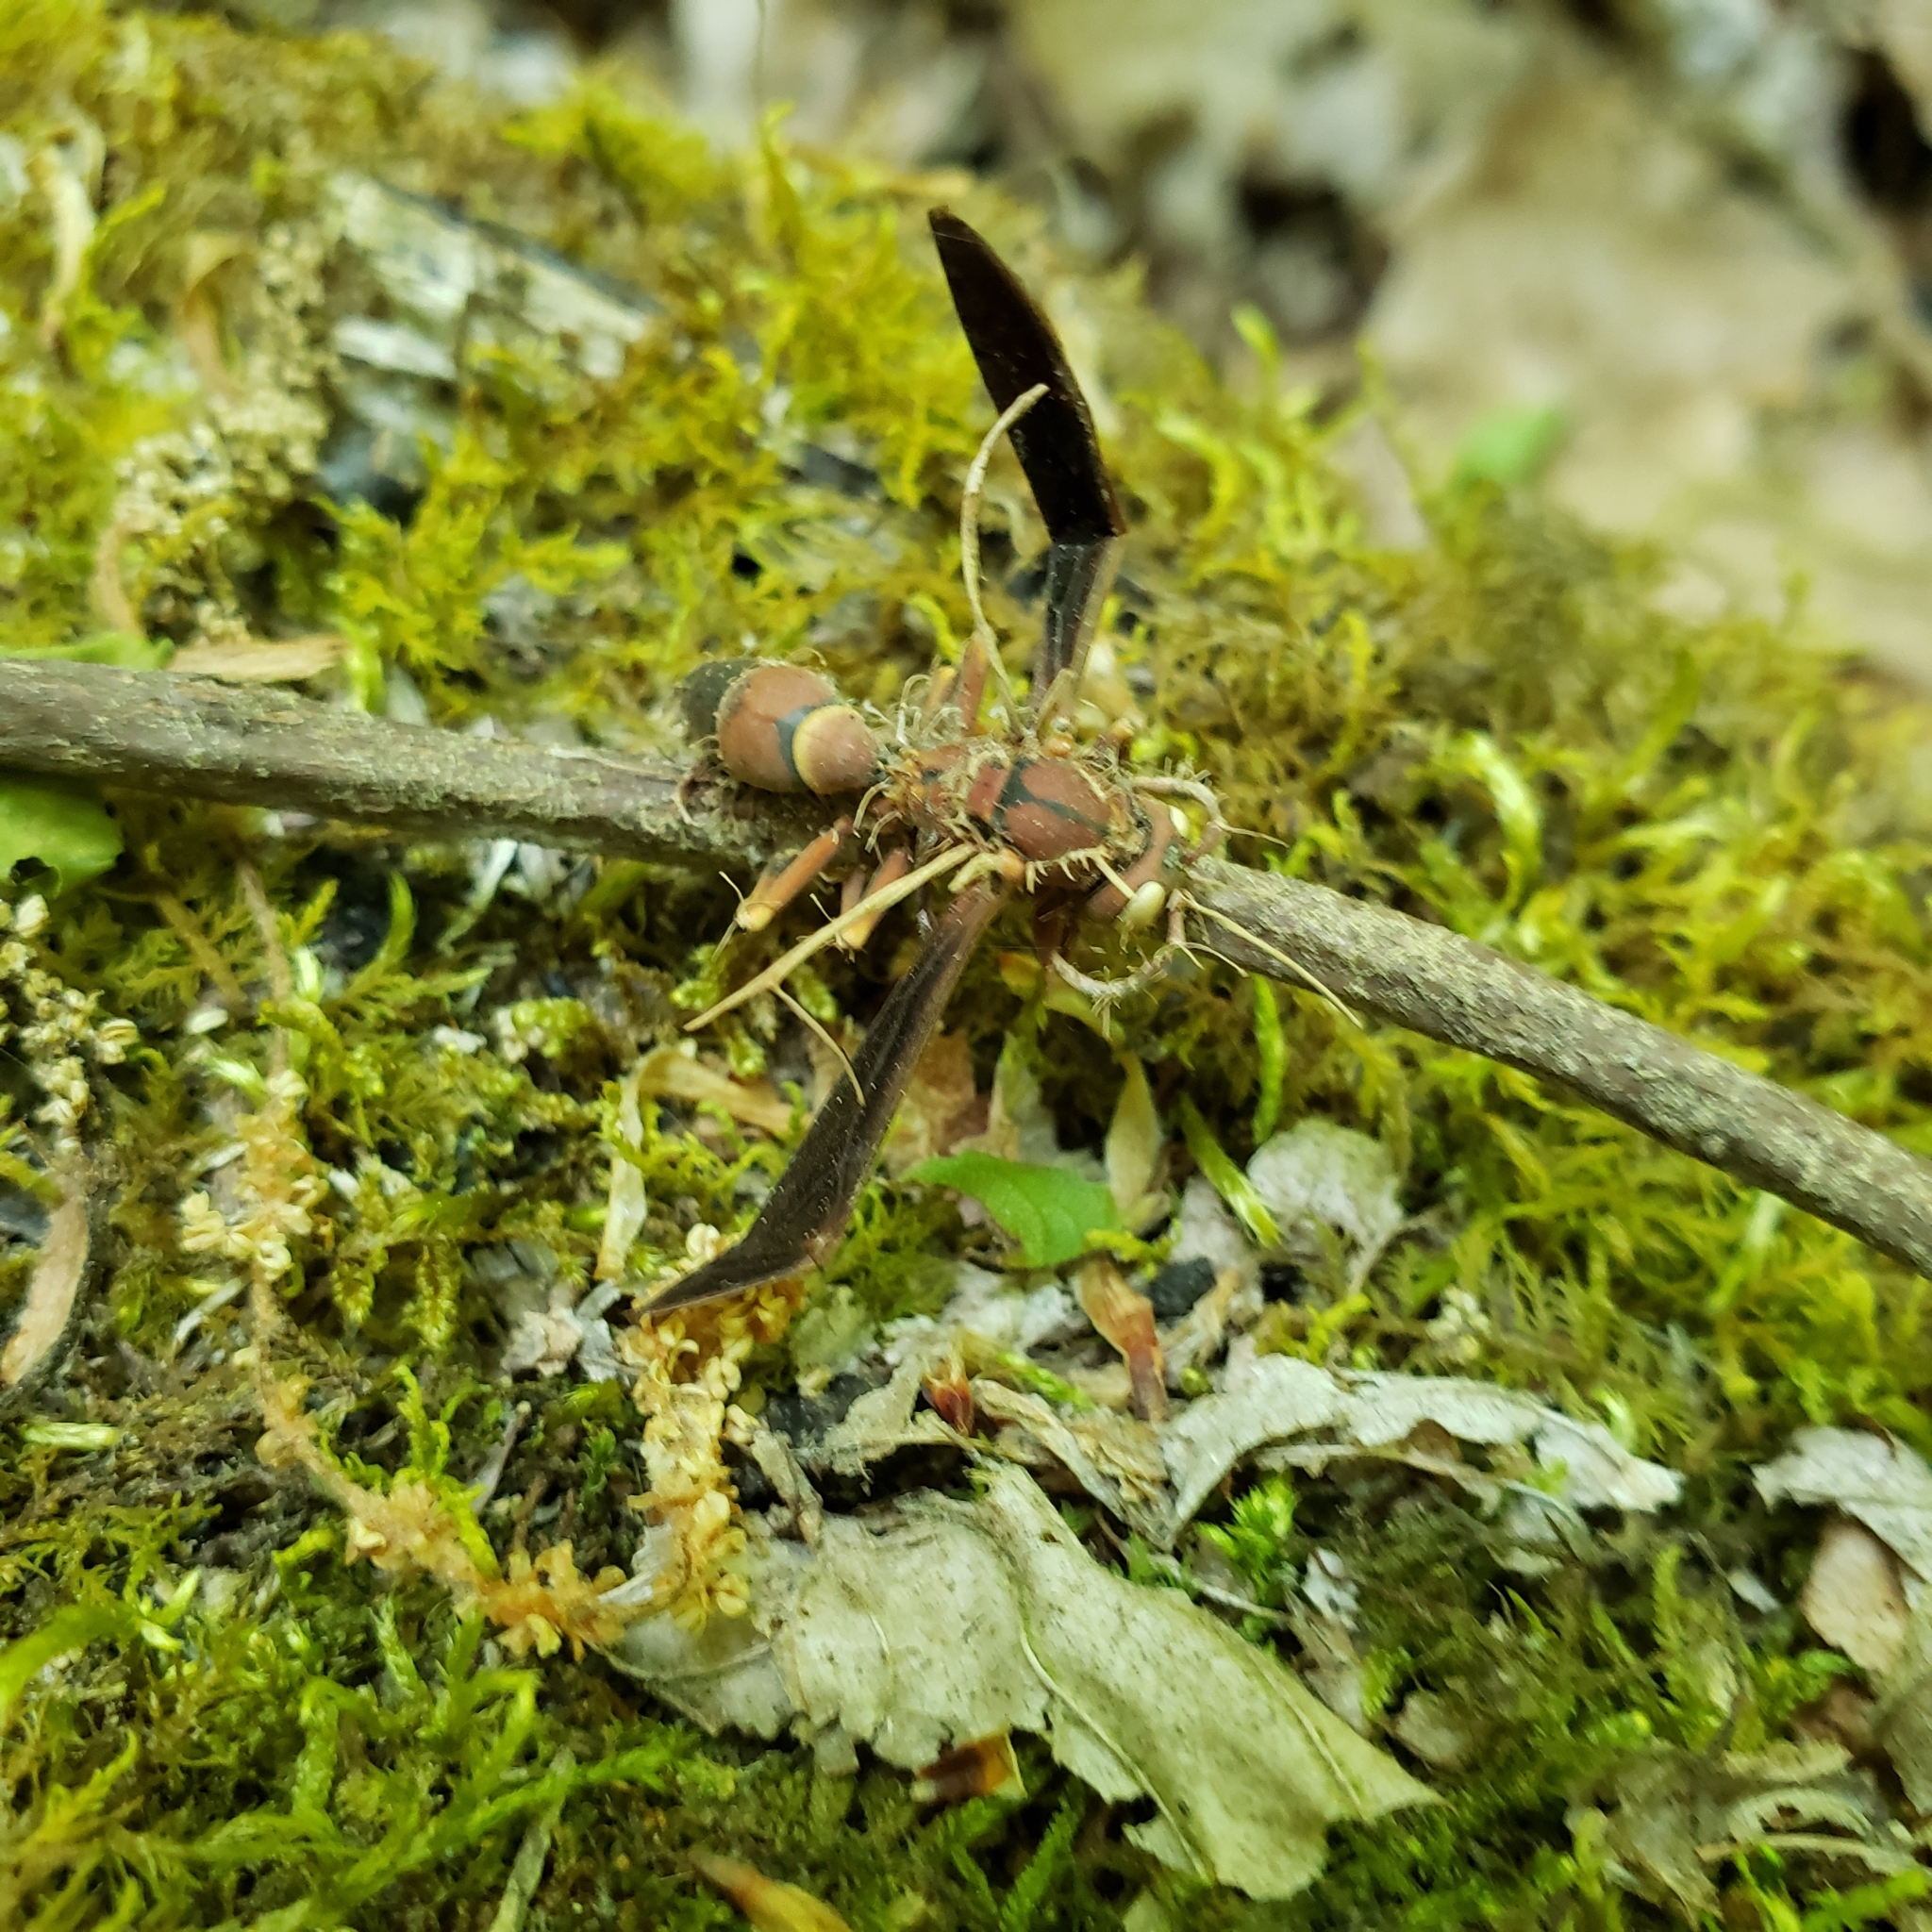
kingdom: Fungi
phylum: Ascomycota
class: Sordariomycetes
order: Hypocreales
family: Ophiocordycipitaceae
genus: Ophiocordyceps
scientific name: Ophiocordyceps humbertii
